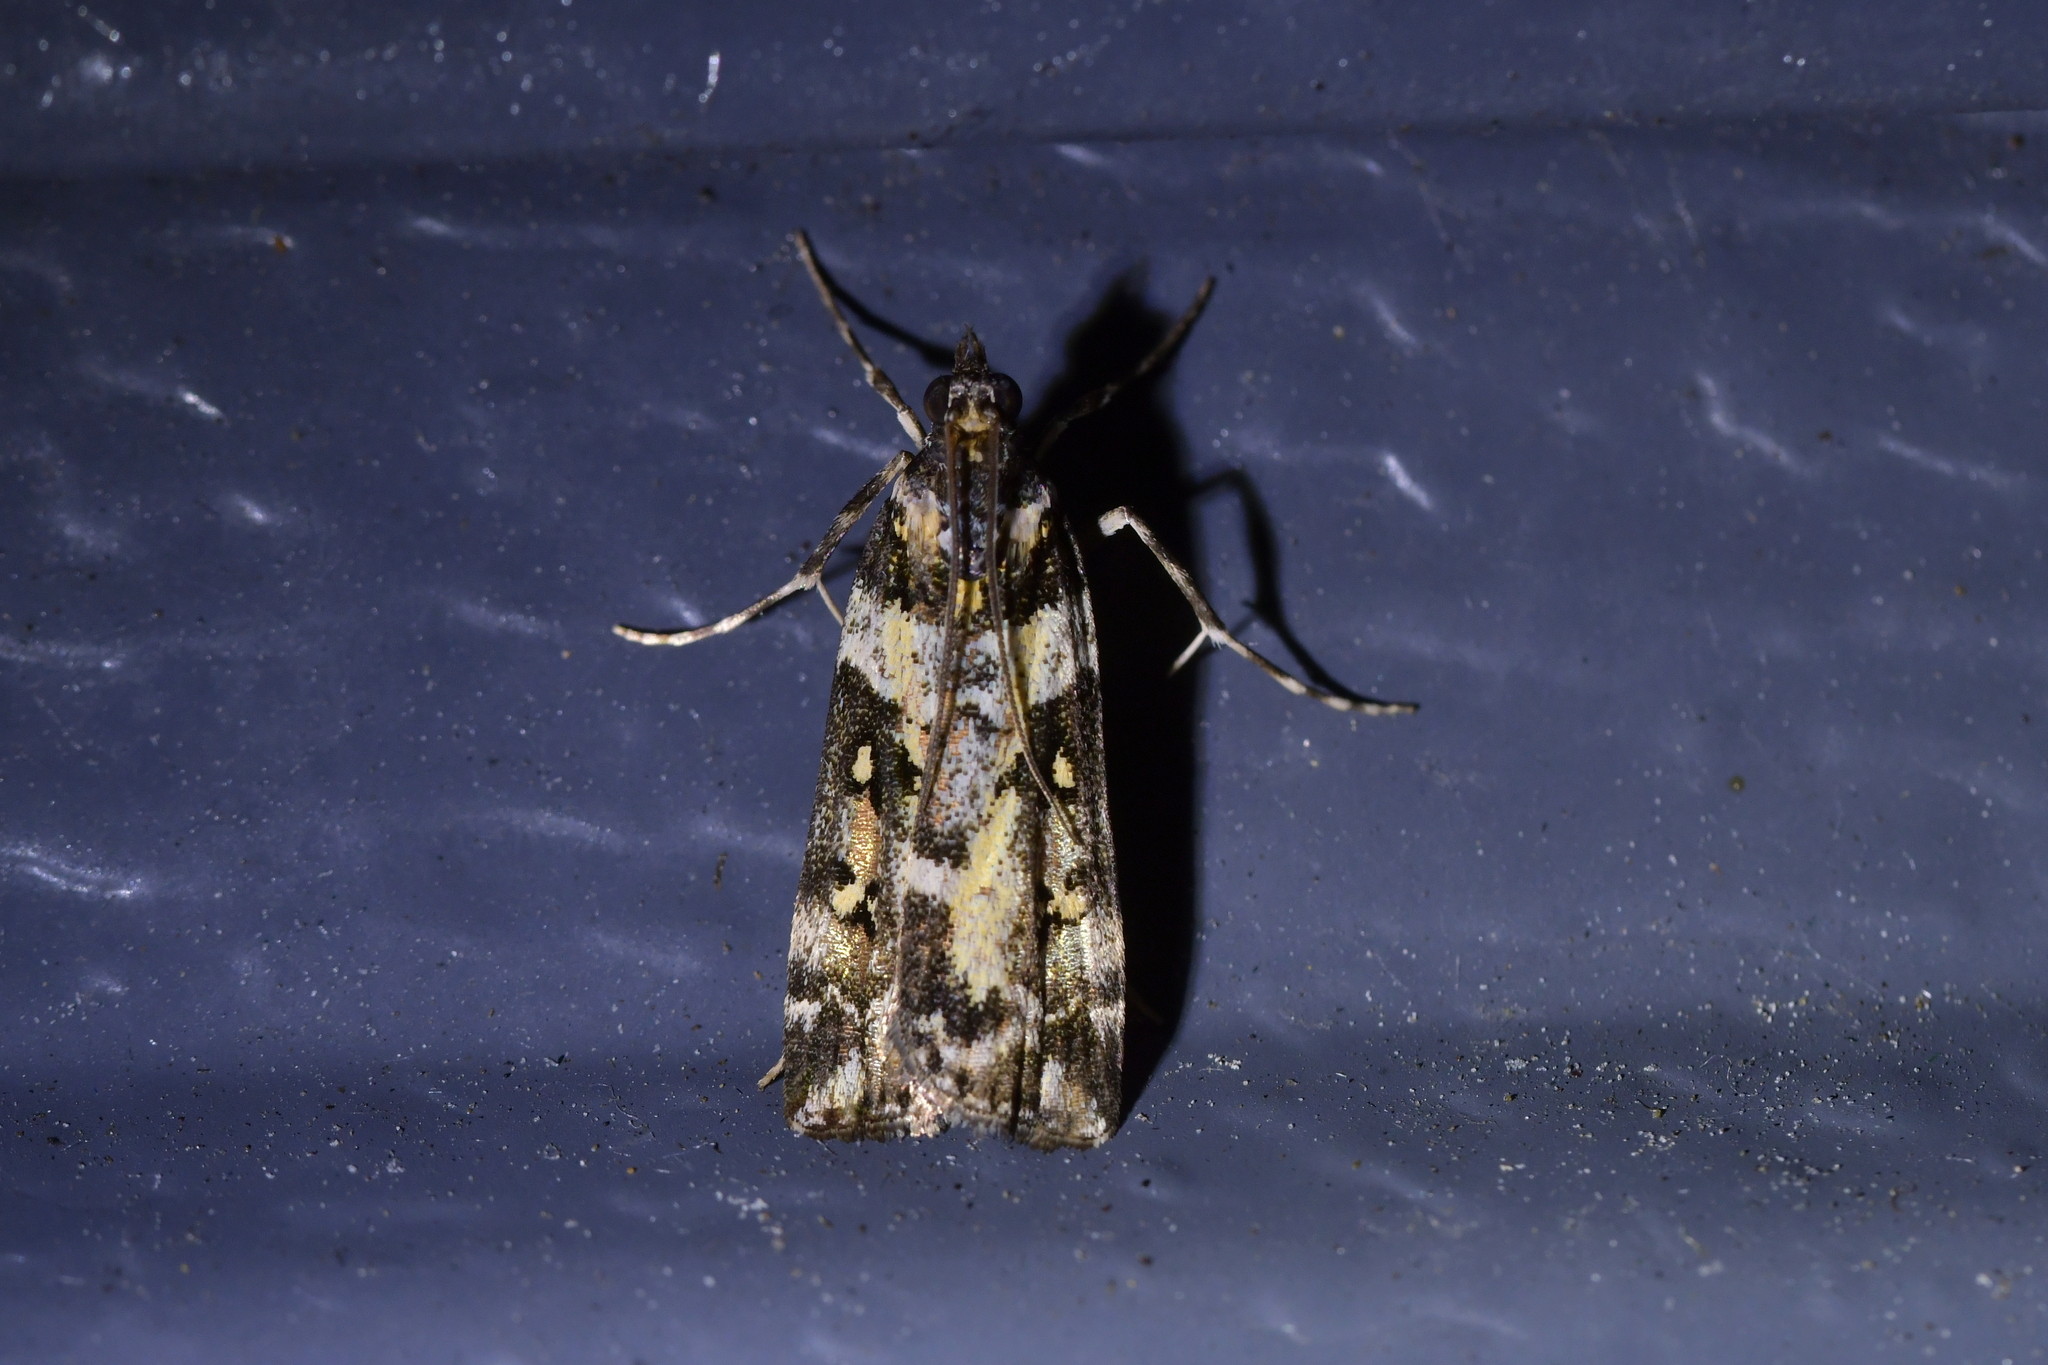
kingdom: Animalia
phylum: Arthropoda
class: Insecta
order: Lepidoptera
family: Crambidae
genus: Eudonia
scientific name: Eudonia diphtheralis
